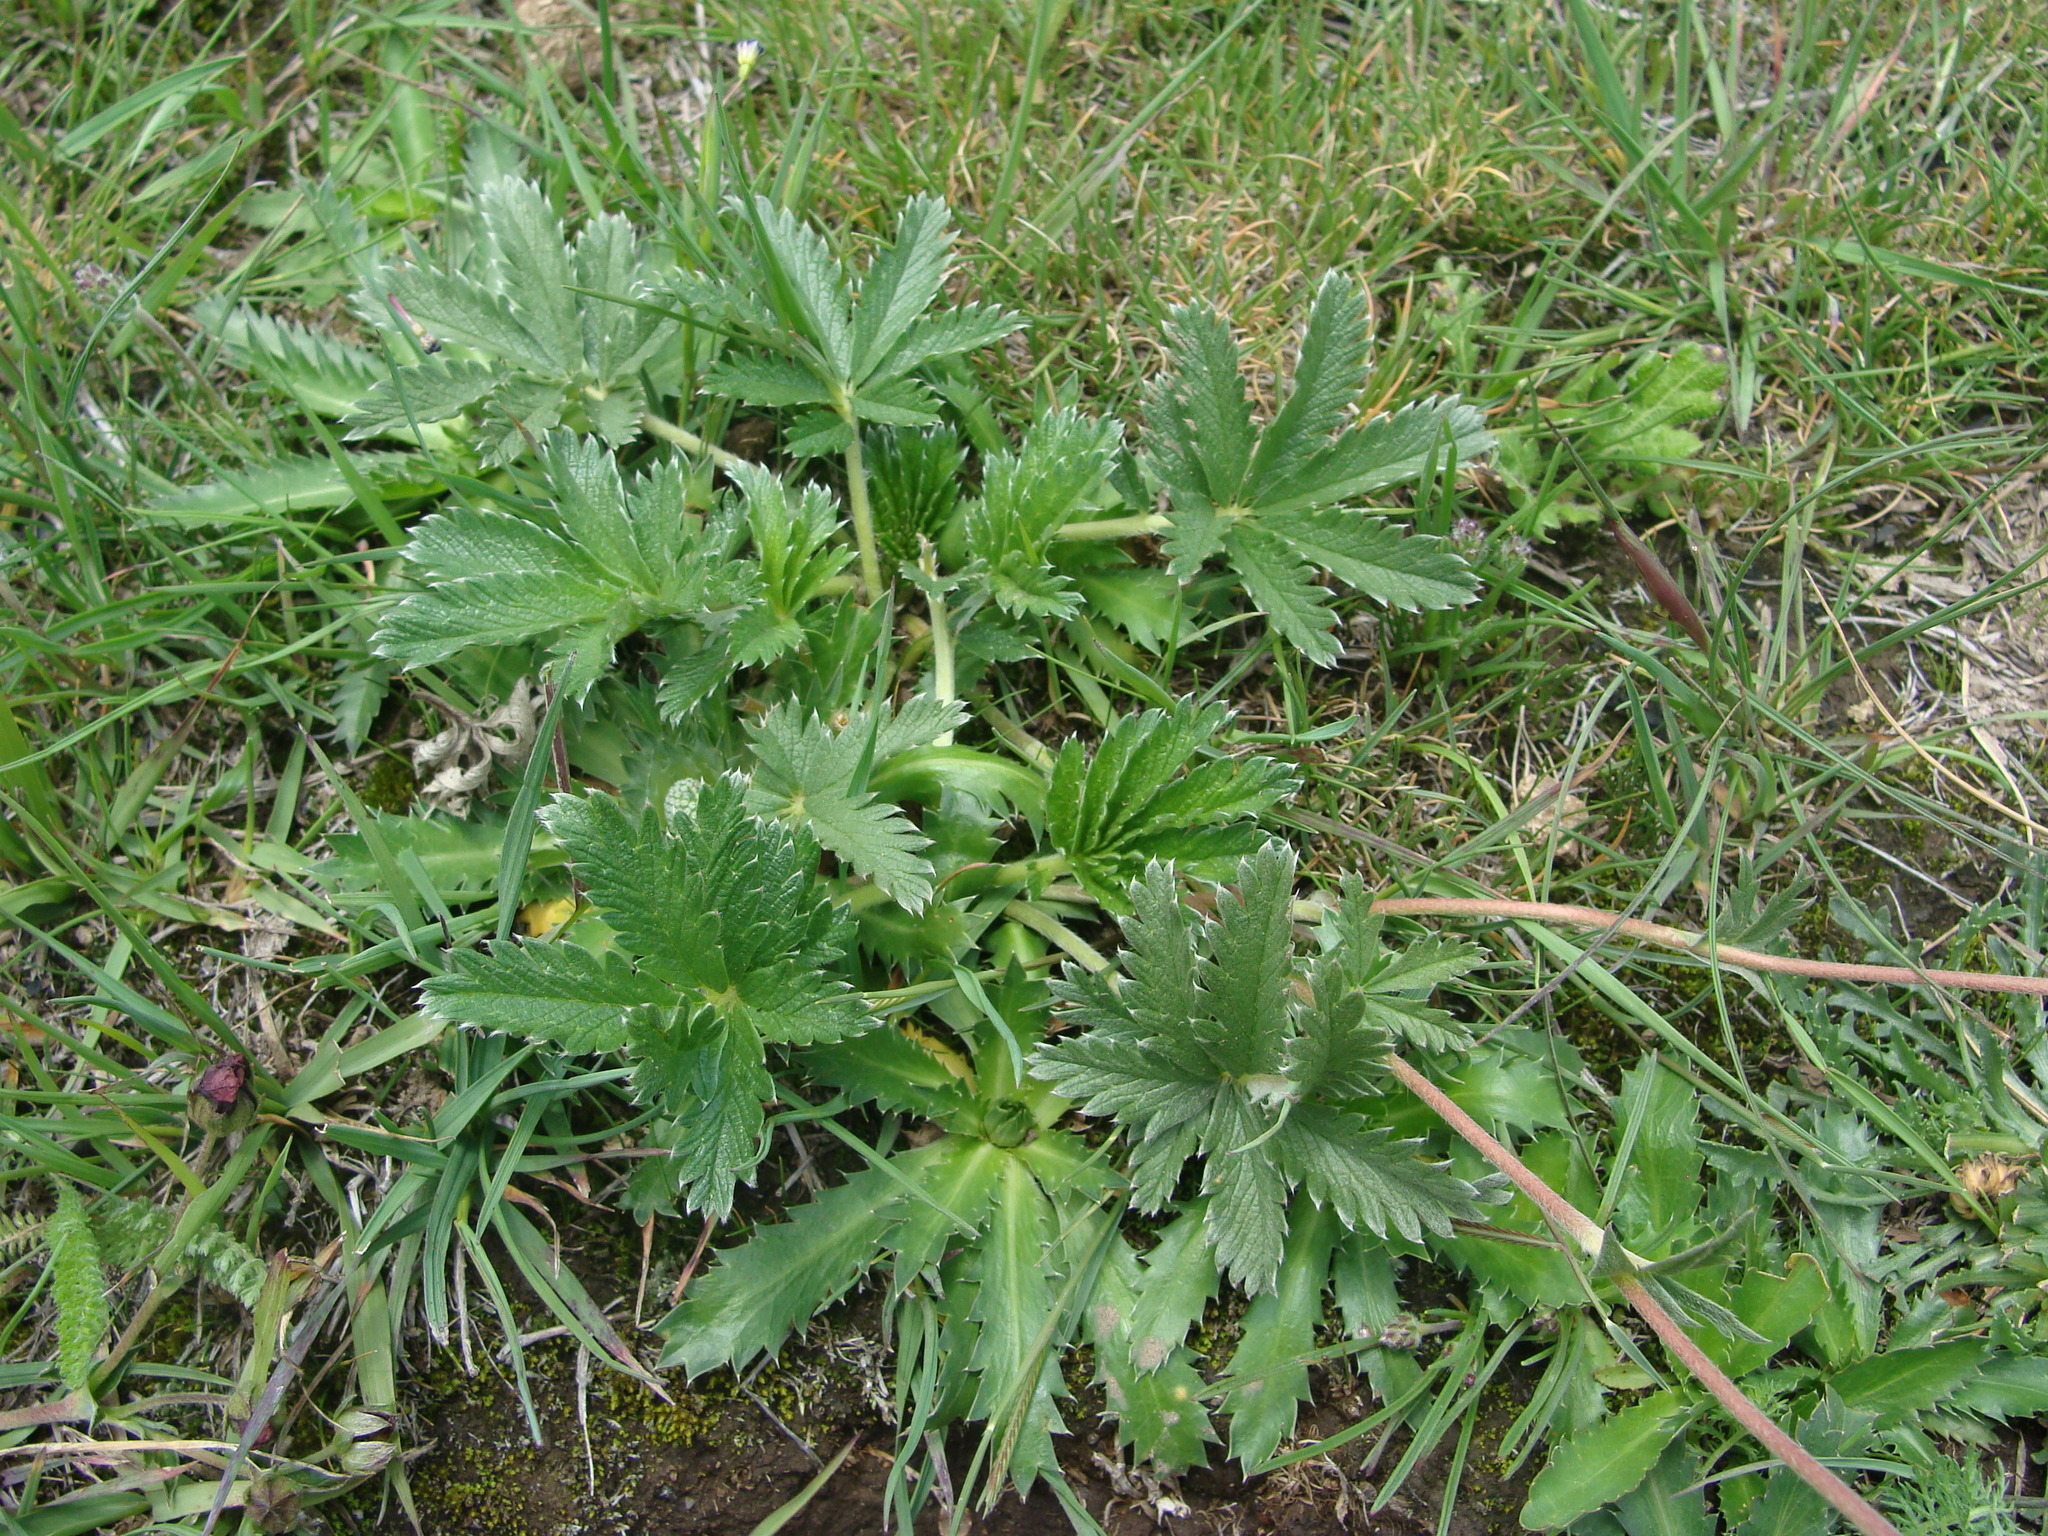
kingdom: Plantae
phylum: Tracheophyta
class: Magnoliopsida
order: Rosales
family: Rosaceae
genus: Potentilla
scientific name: Potentilla ehrenbergiana
